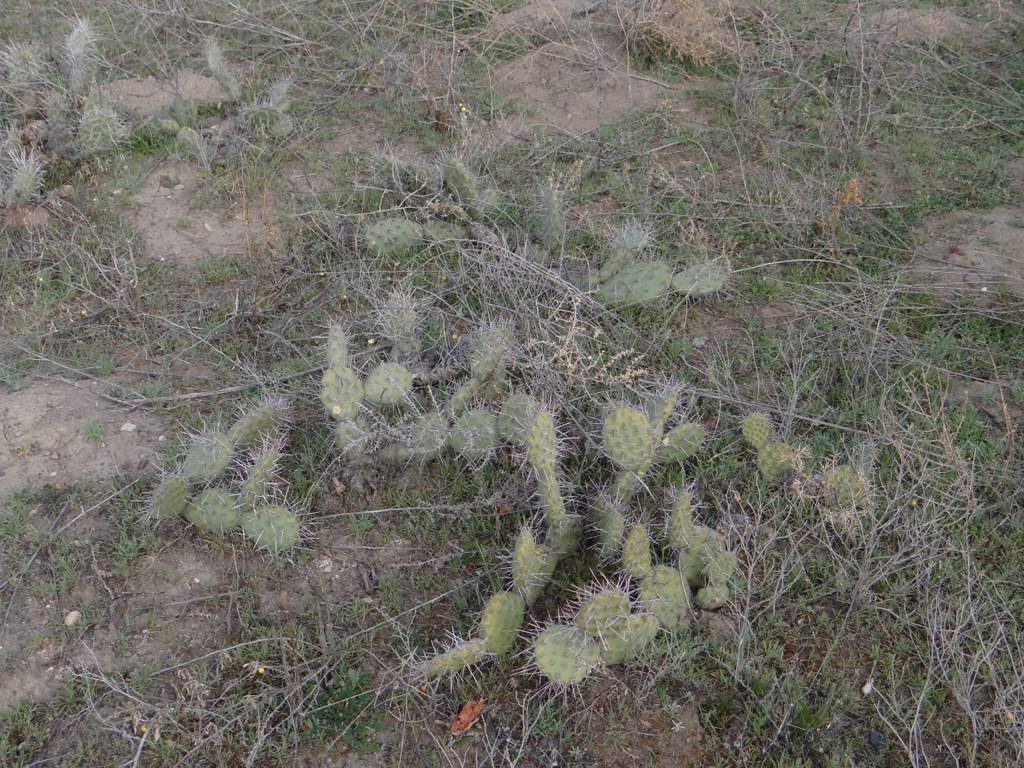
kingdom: Plantae
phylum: Tracheophyta
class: Magnoliopsida
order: Caryophyllales
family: Cactaceae
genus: Opuntia
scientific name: Opuntia sulphurea
